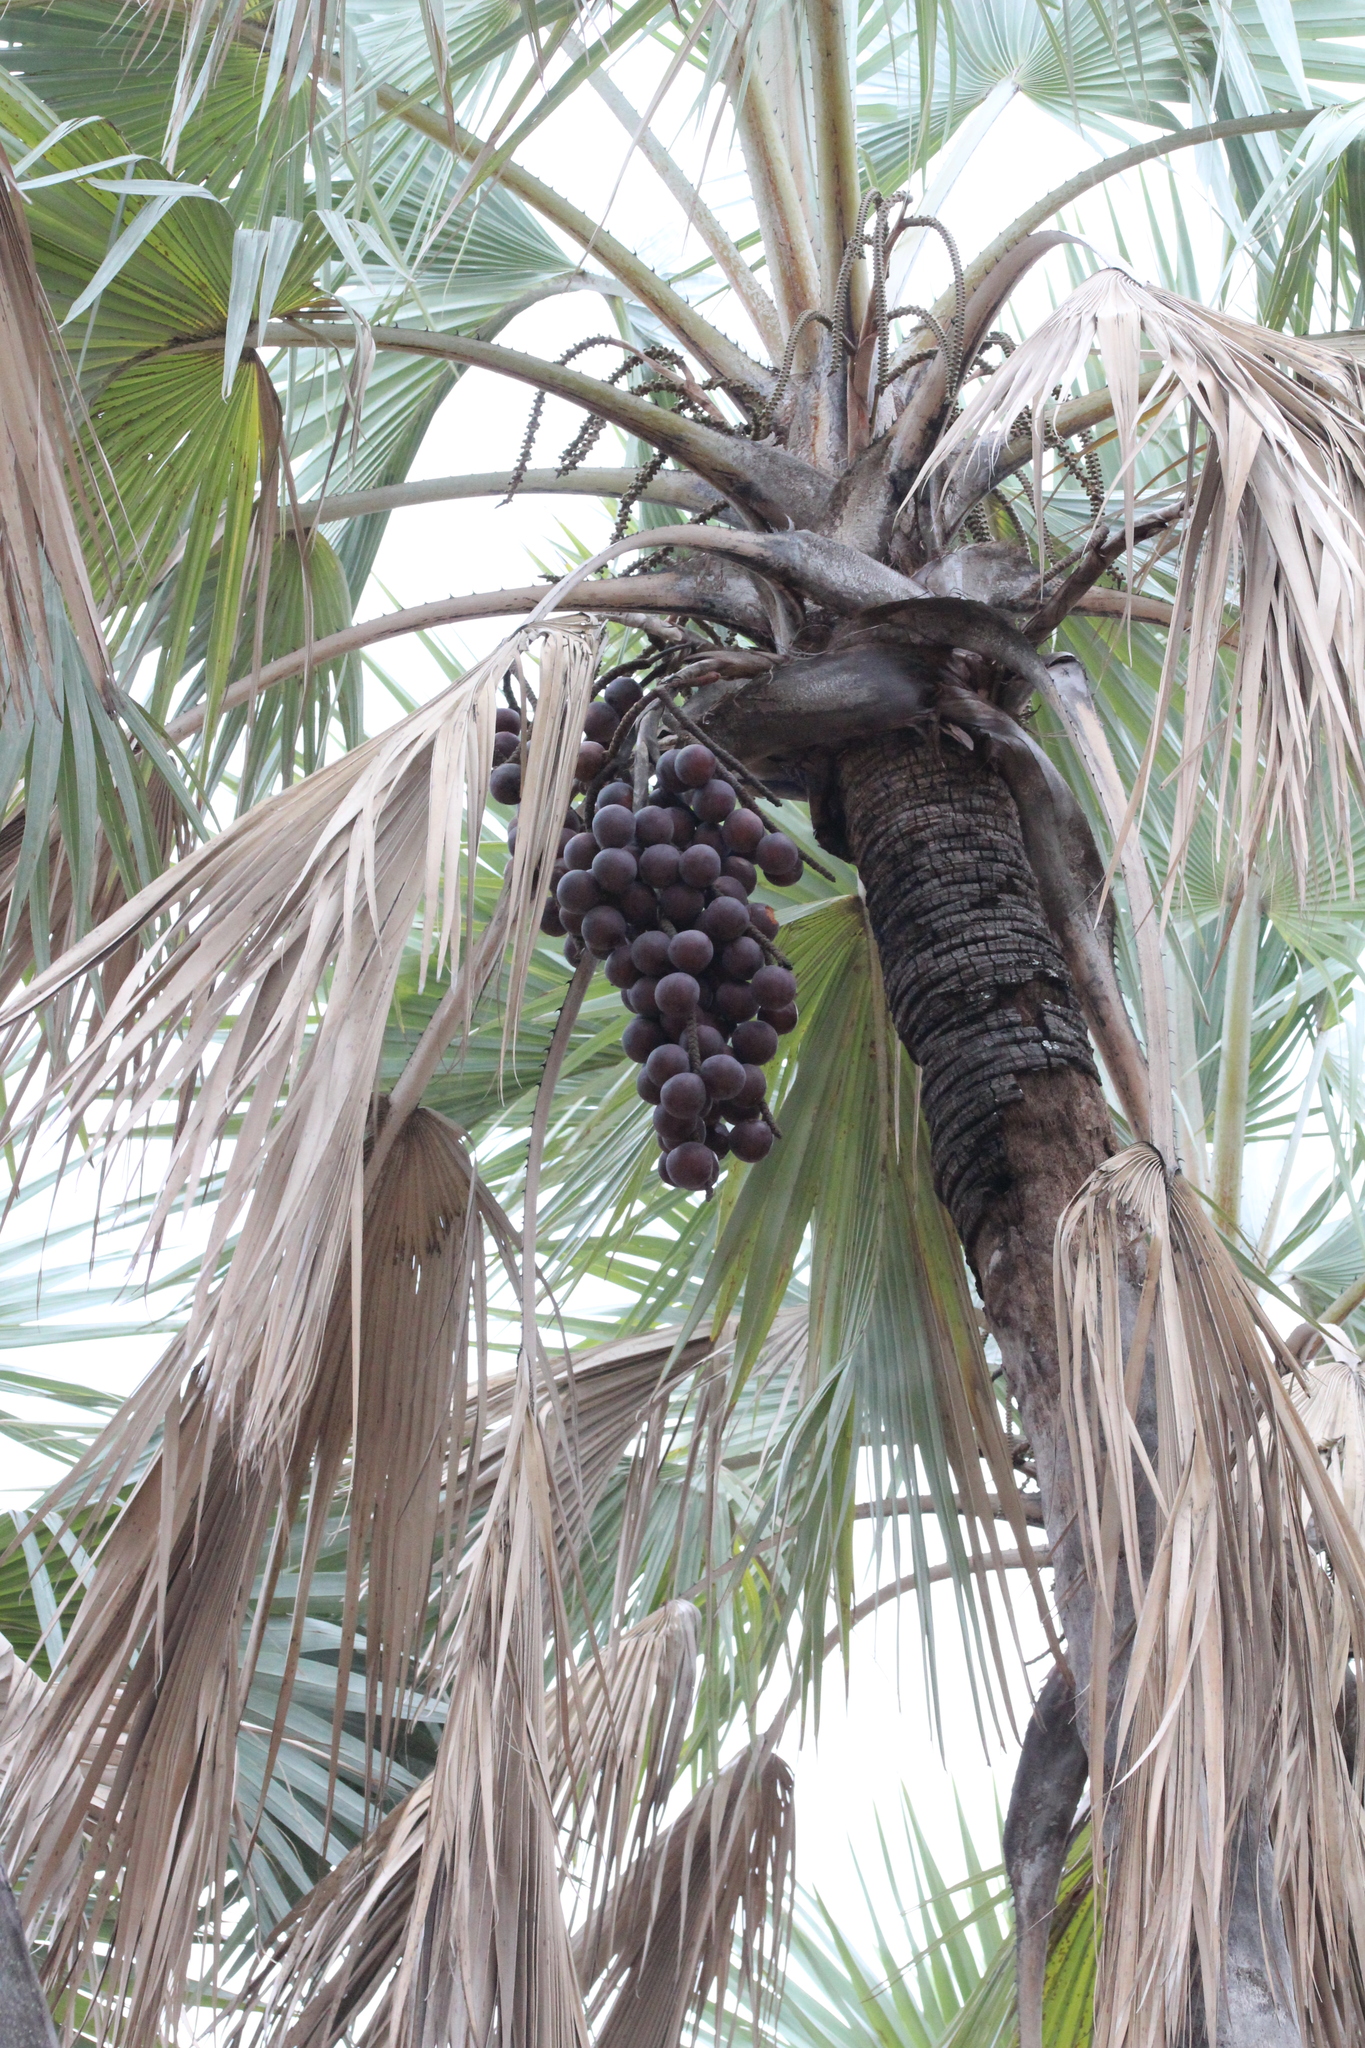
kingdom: Plantae
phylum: Tracheophyta
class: Liliopsida
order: Arecales
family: Arecaceae
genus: Hyphaene
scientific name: Hyphaene petersiana
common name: African ivory nut palm
